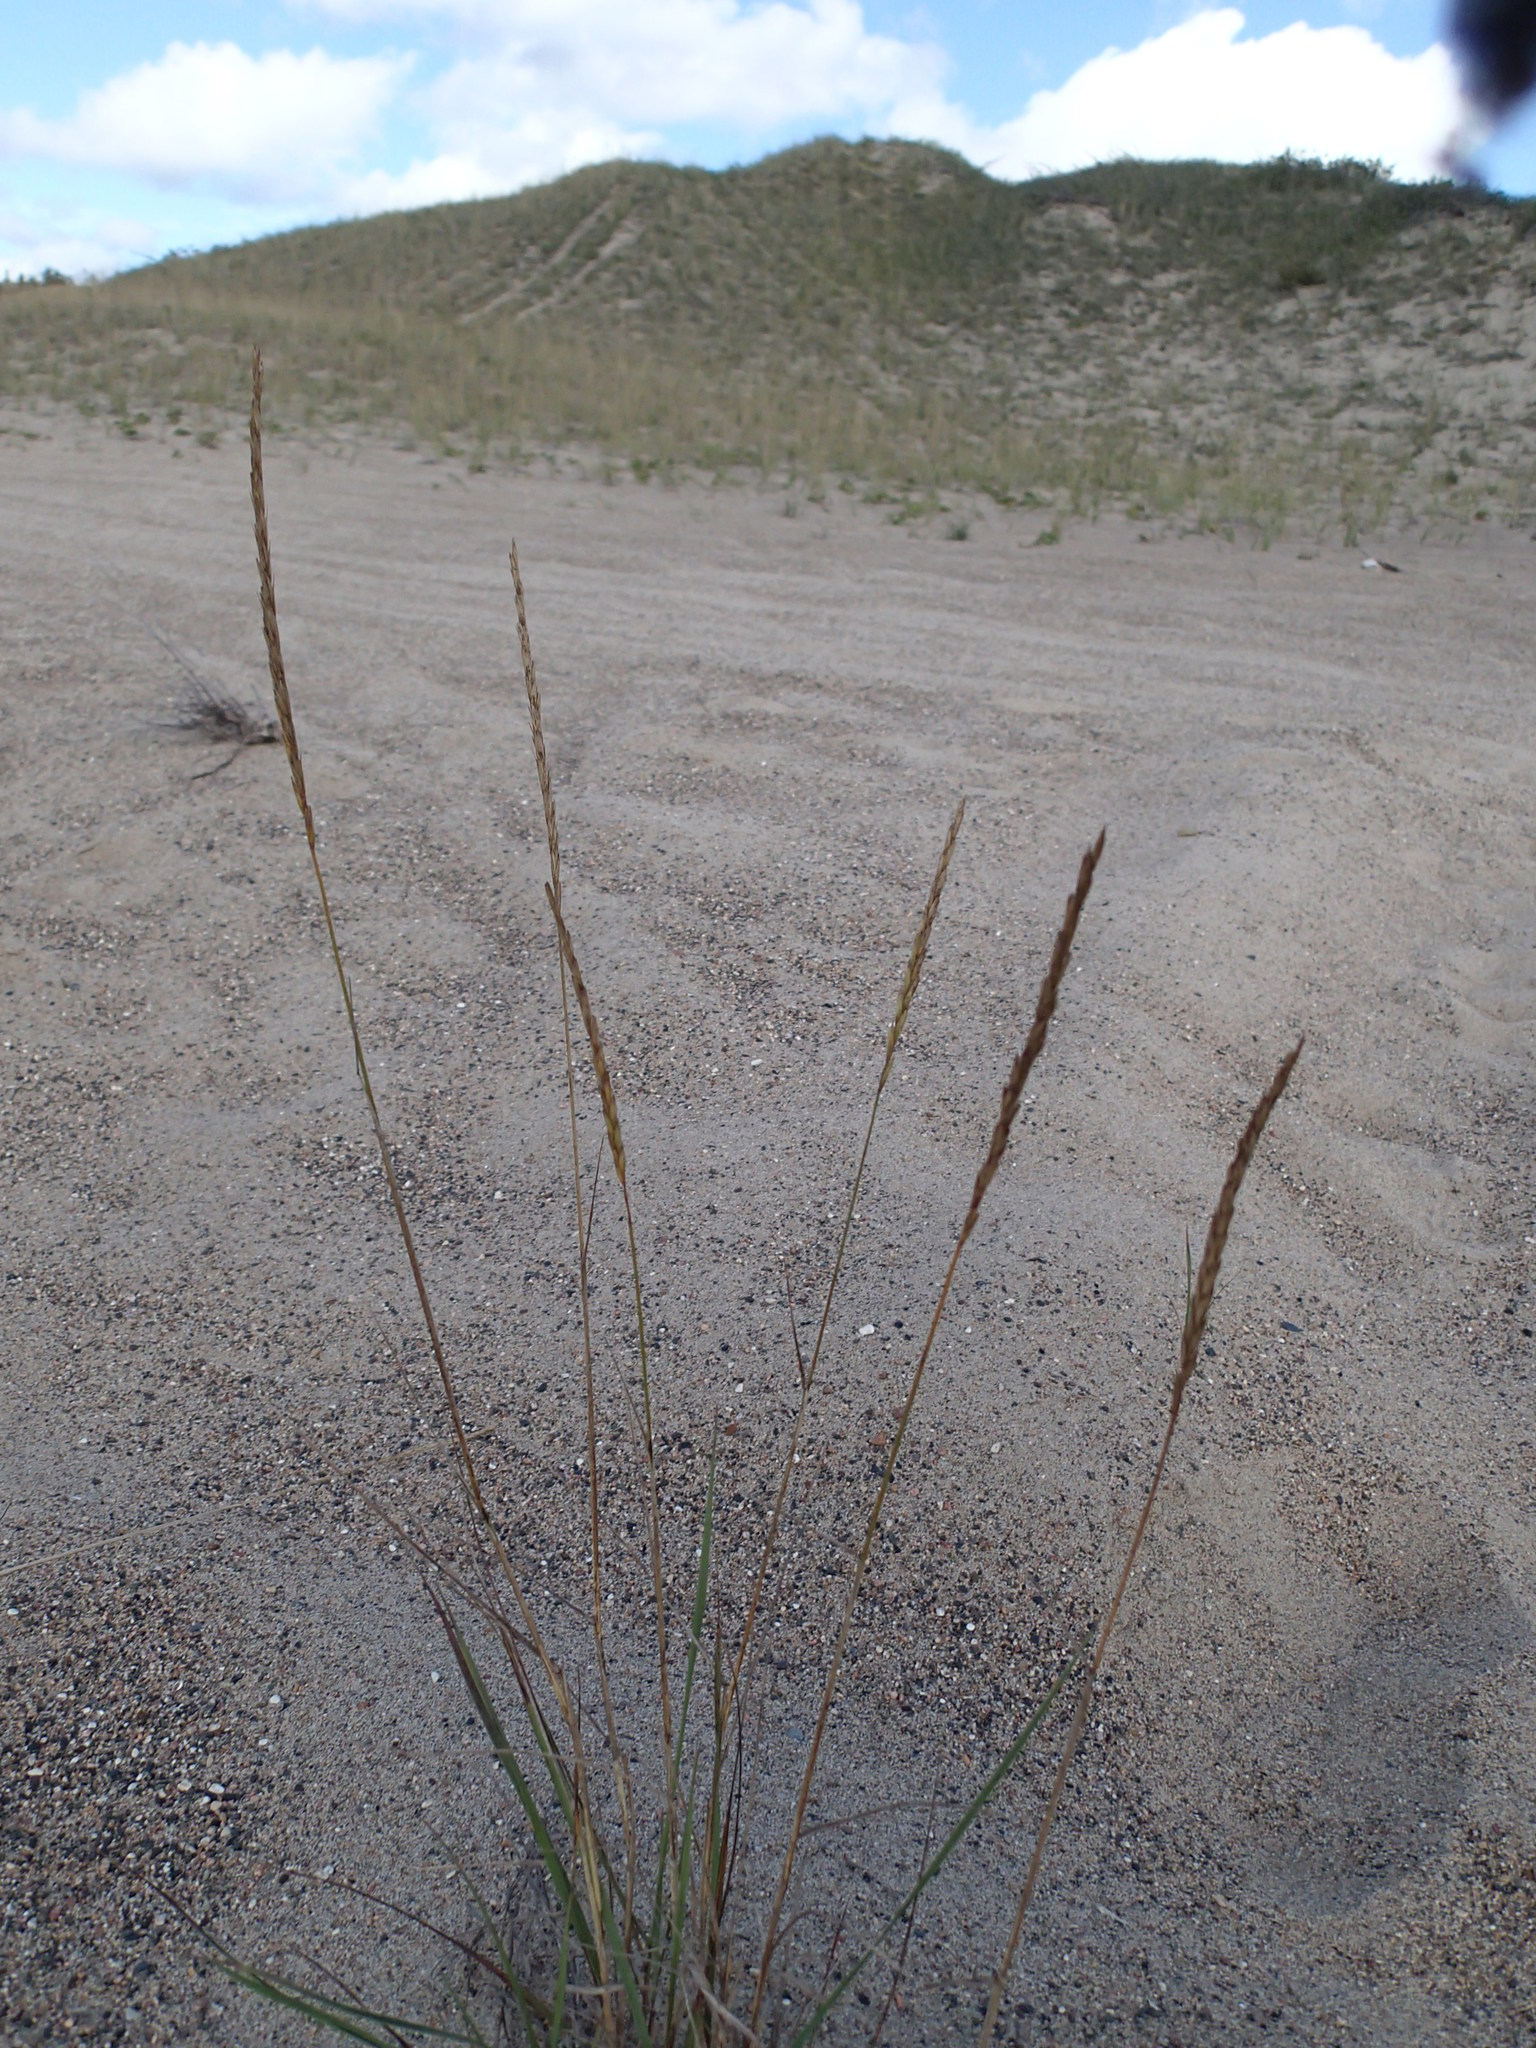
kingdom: Plantae
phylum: Tracheophyta
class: Liliopsida
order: Poales
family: Poaceae
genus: Elymus
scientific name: Elymus violaceus
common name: Arctic wheatgrass
